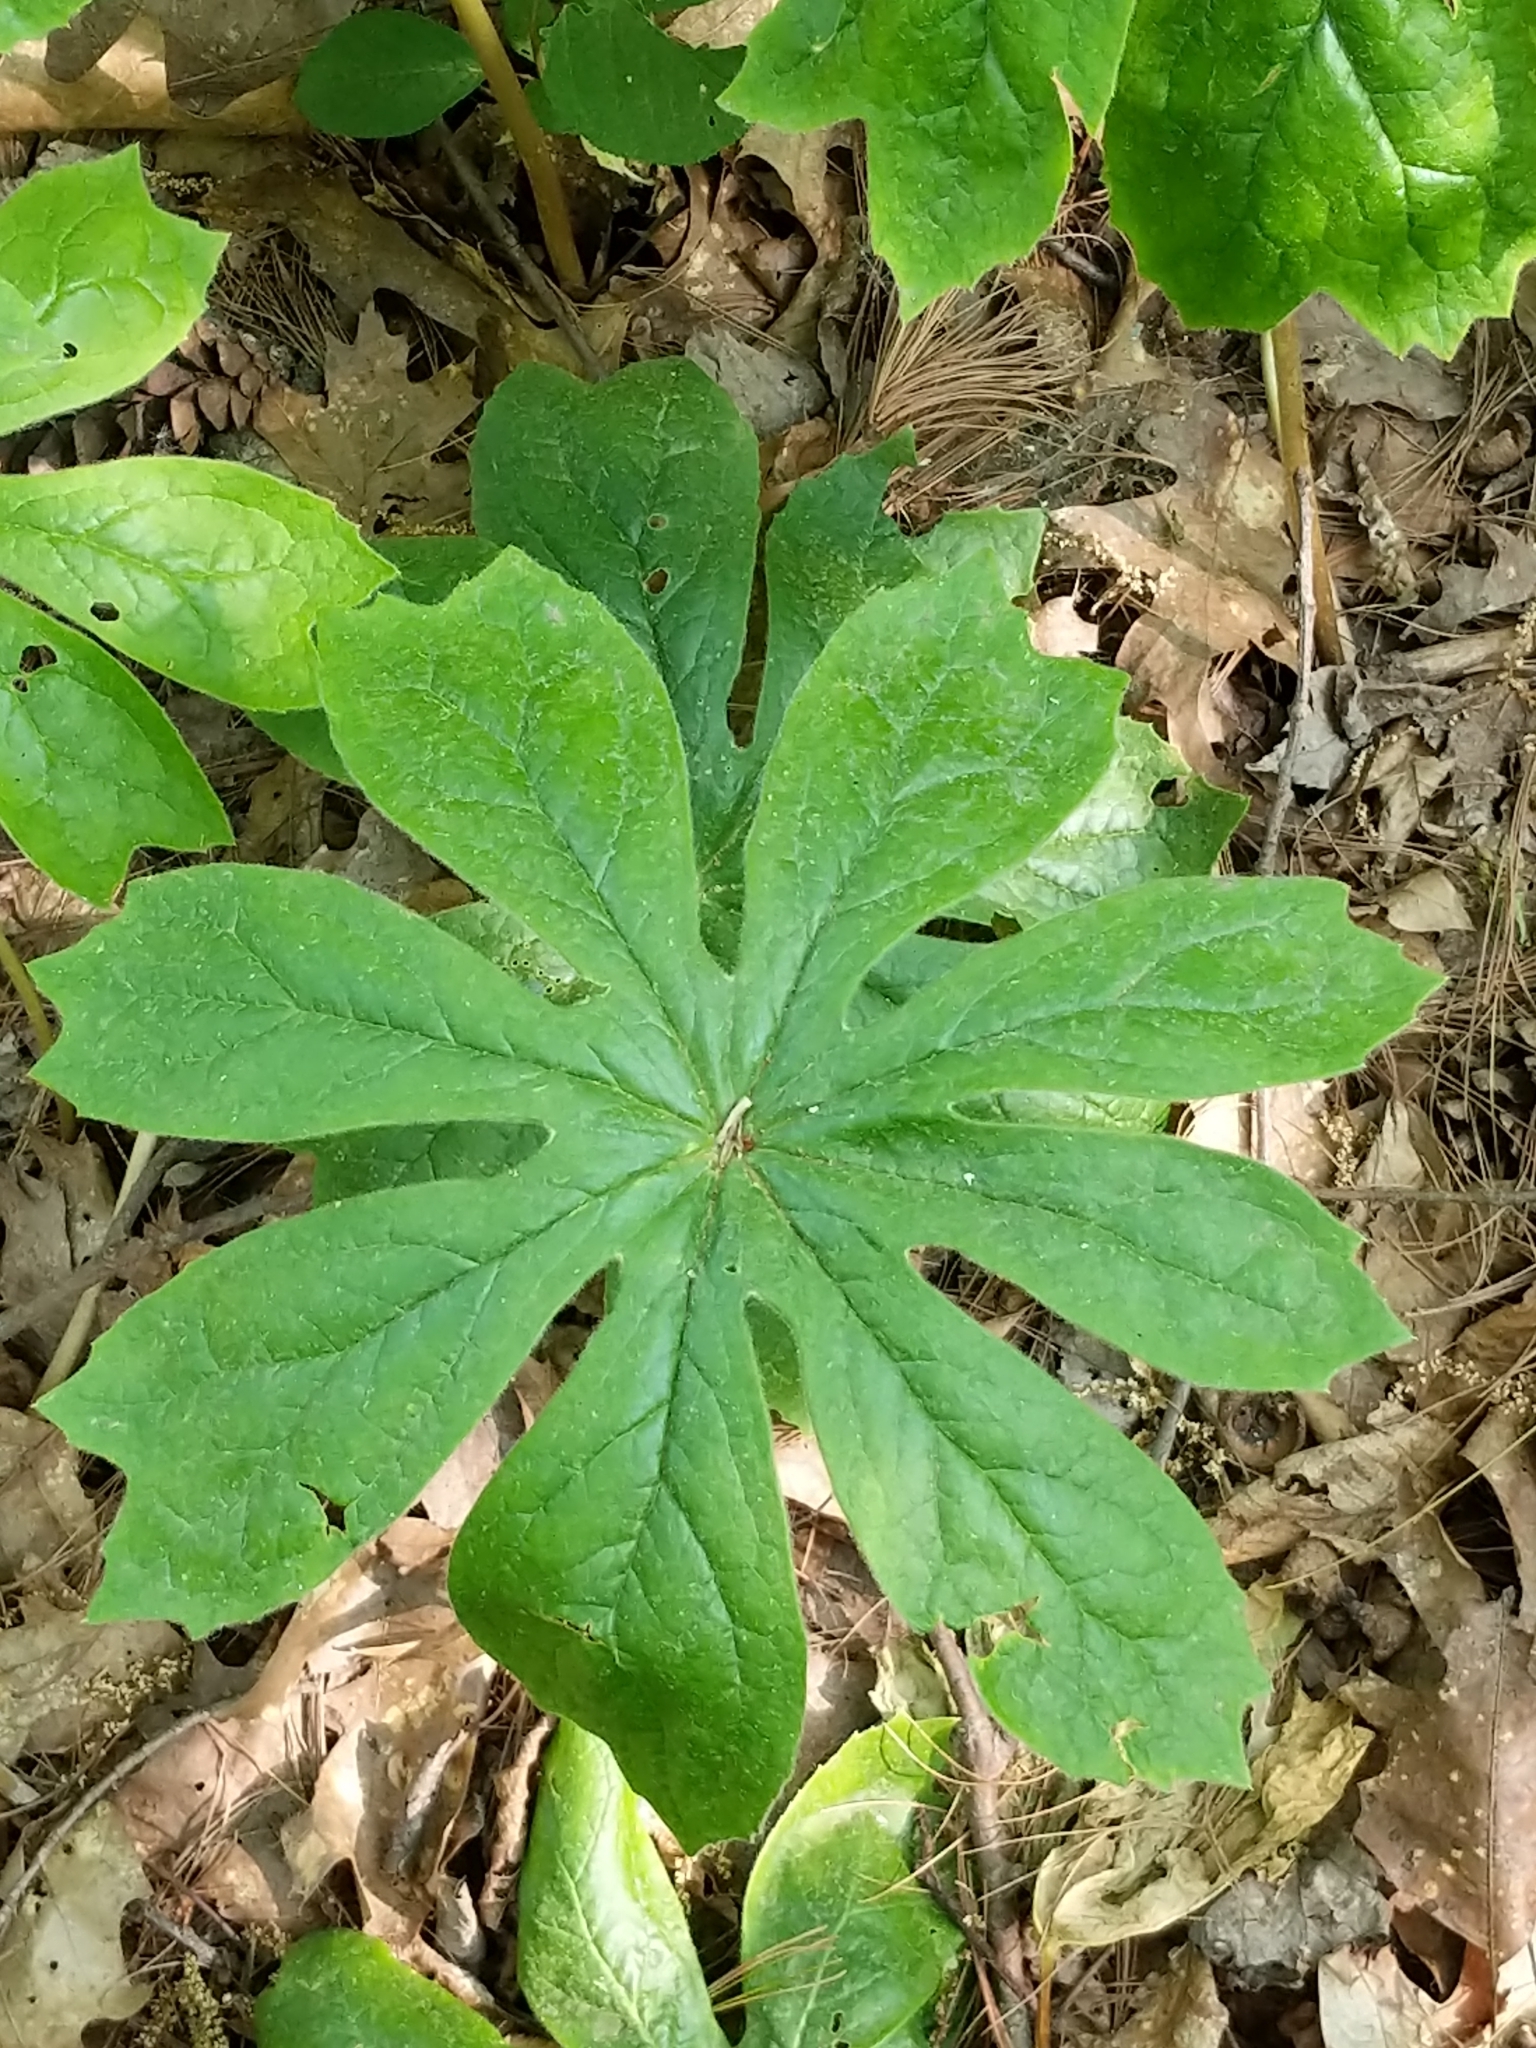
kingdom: Plantae
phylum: Tracheophyta
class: Magnoliopsida
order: Ranunculales
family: Berberidaceae
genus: Podophyllum
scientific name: Podophyllum peltatum
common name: Wild mandrake
